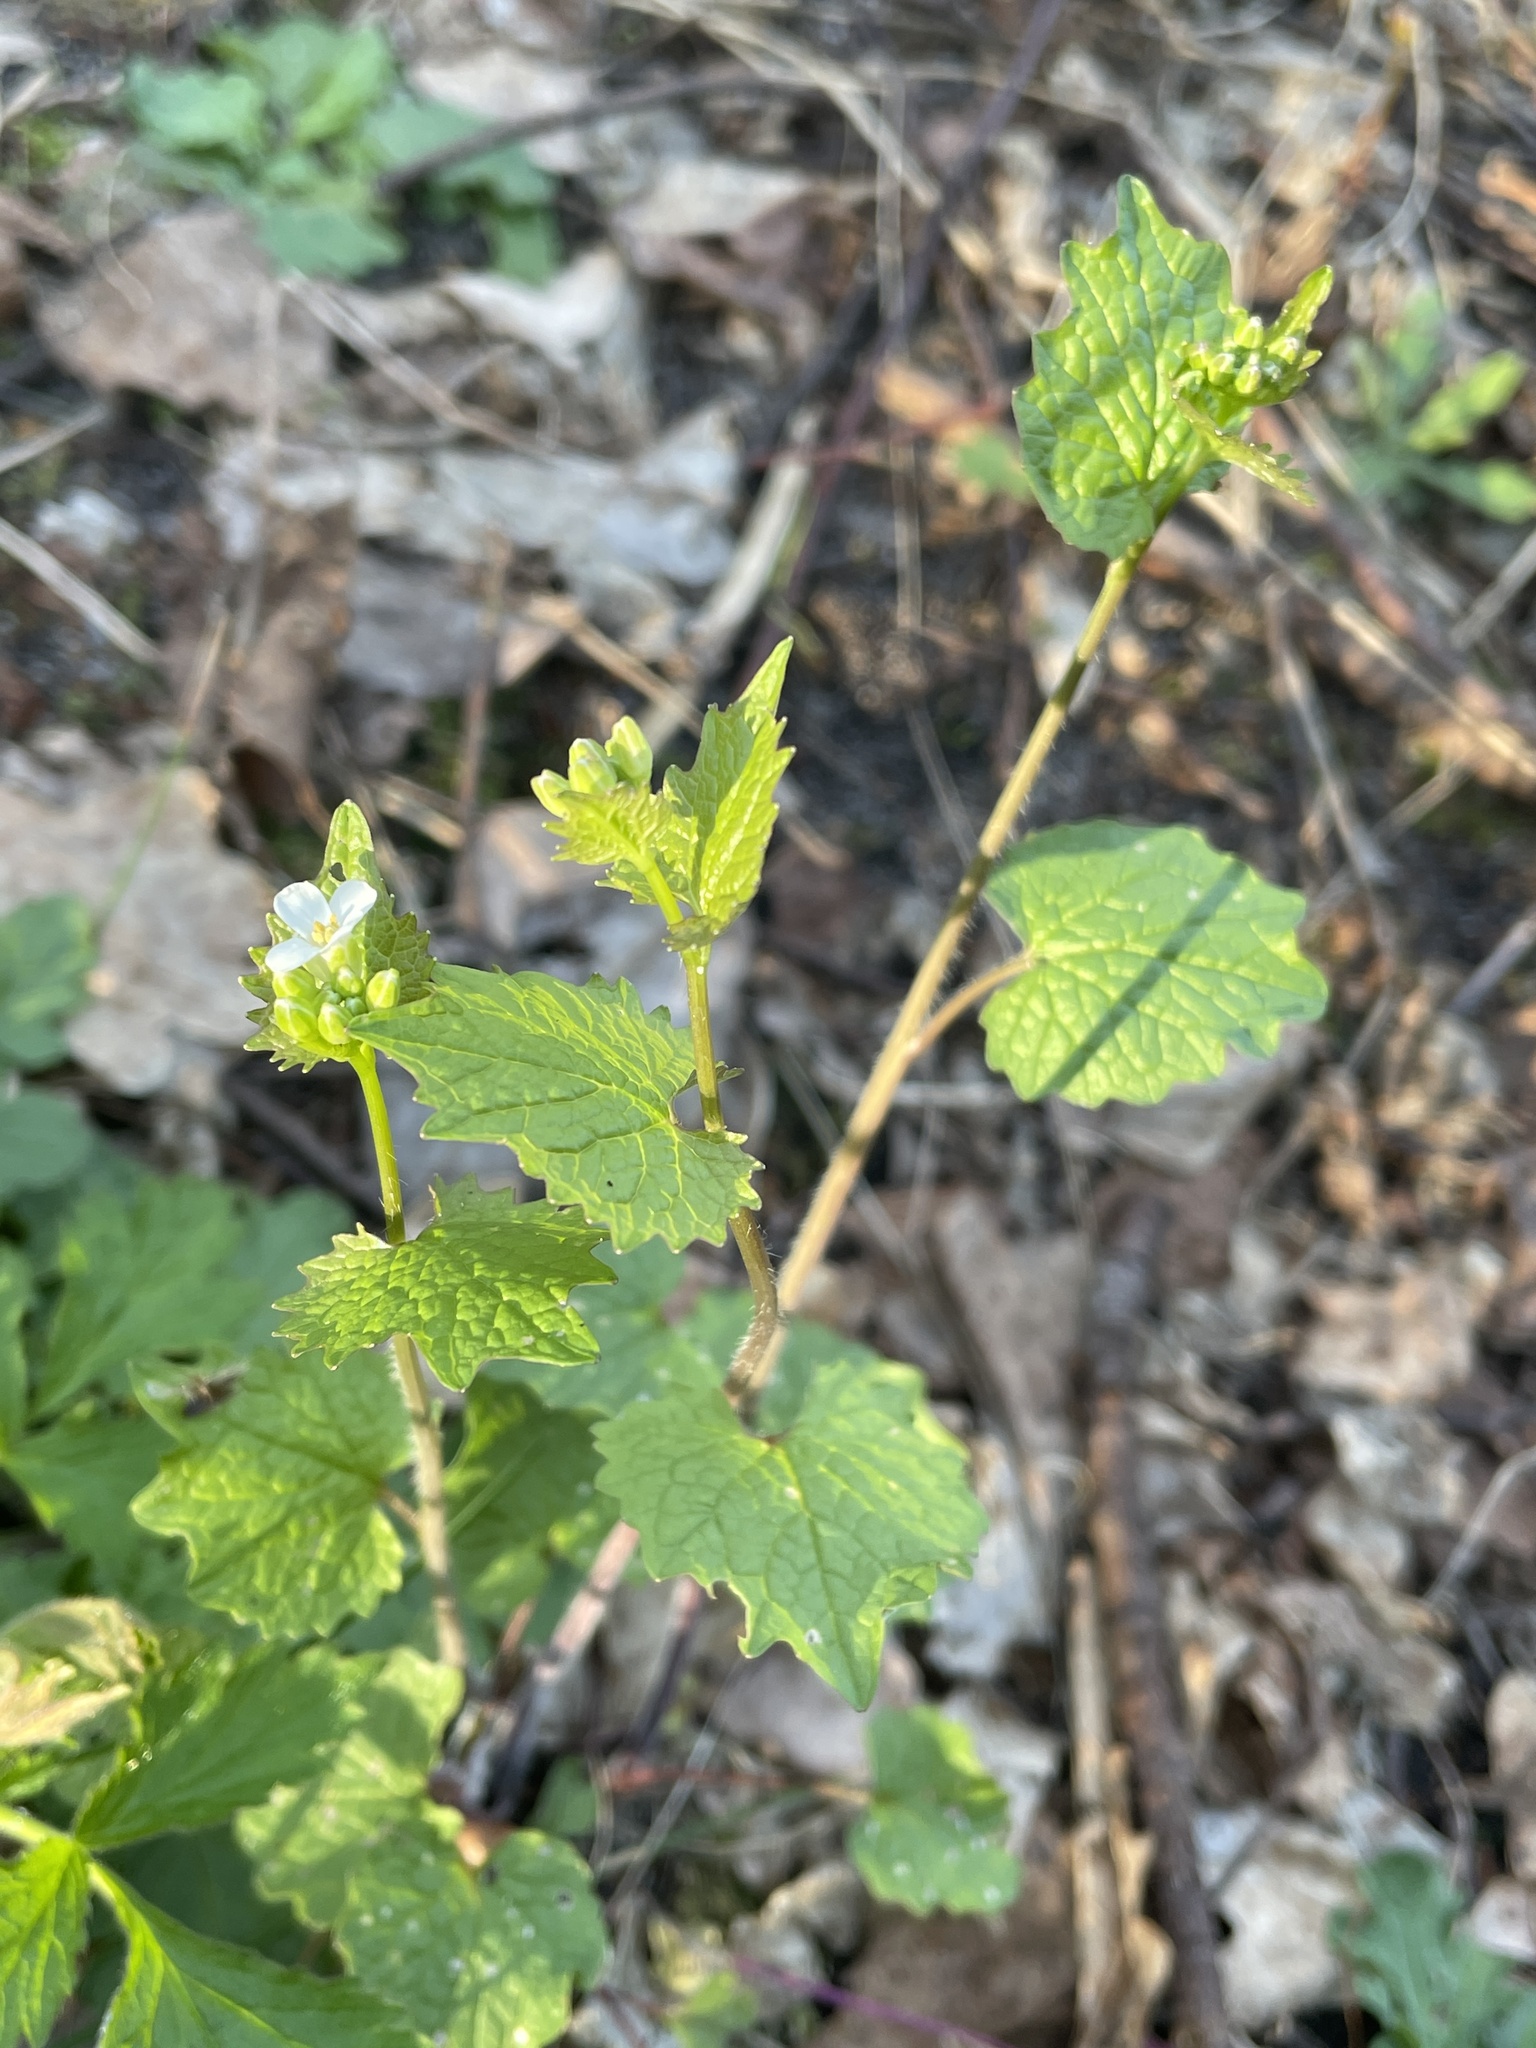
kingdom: Plantae
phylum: Tracheophyta
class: Magnoliopsida
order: Brassicales
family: Brassicaceae
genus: Alliaria
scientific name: Alliaria petiolata
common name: Garlic mustard
